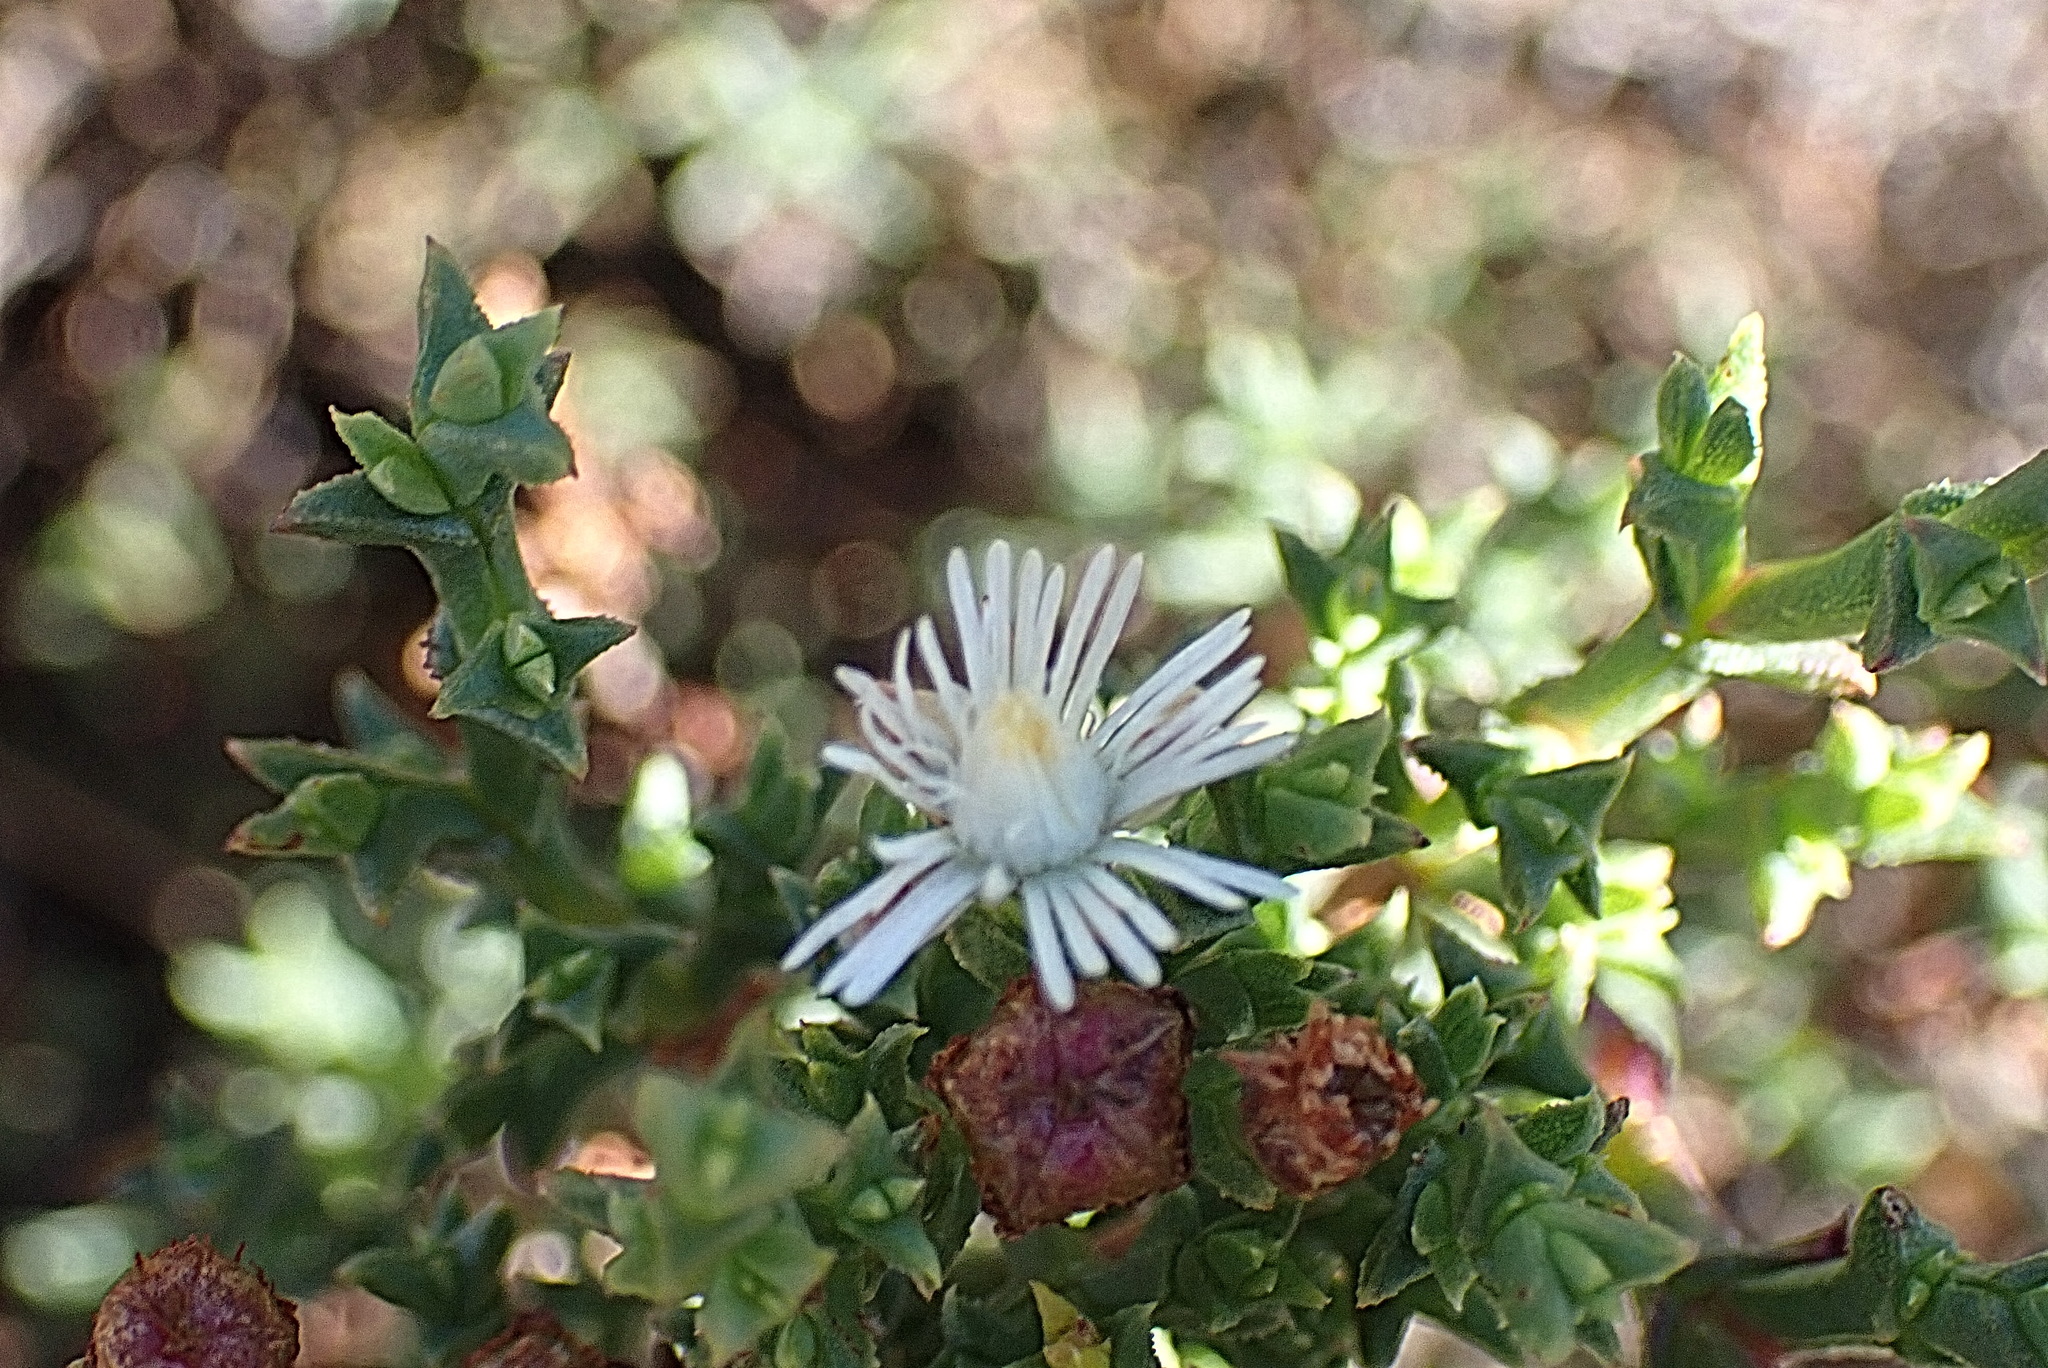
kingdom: Plantae
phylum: Tracheophyta
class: Magnoliopsida
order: Caryophyllales
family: Aizoaceae
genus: Ruschia
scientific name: Ruschia tenella
